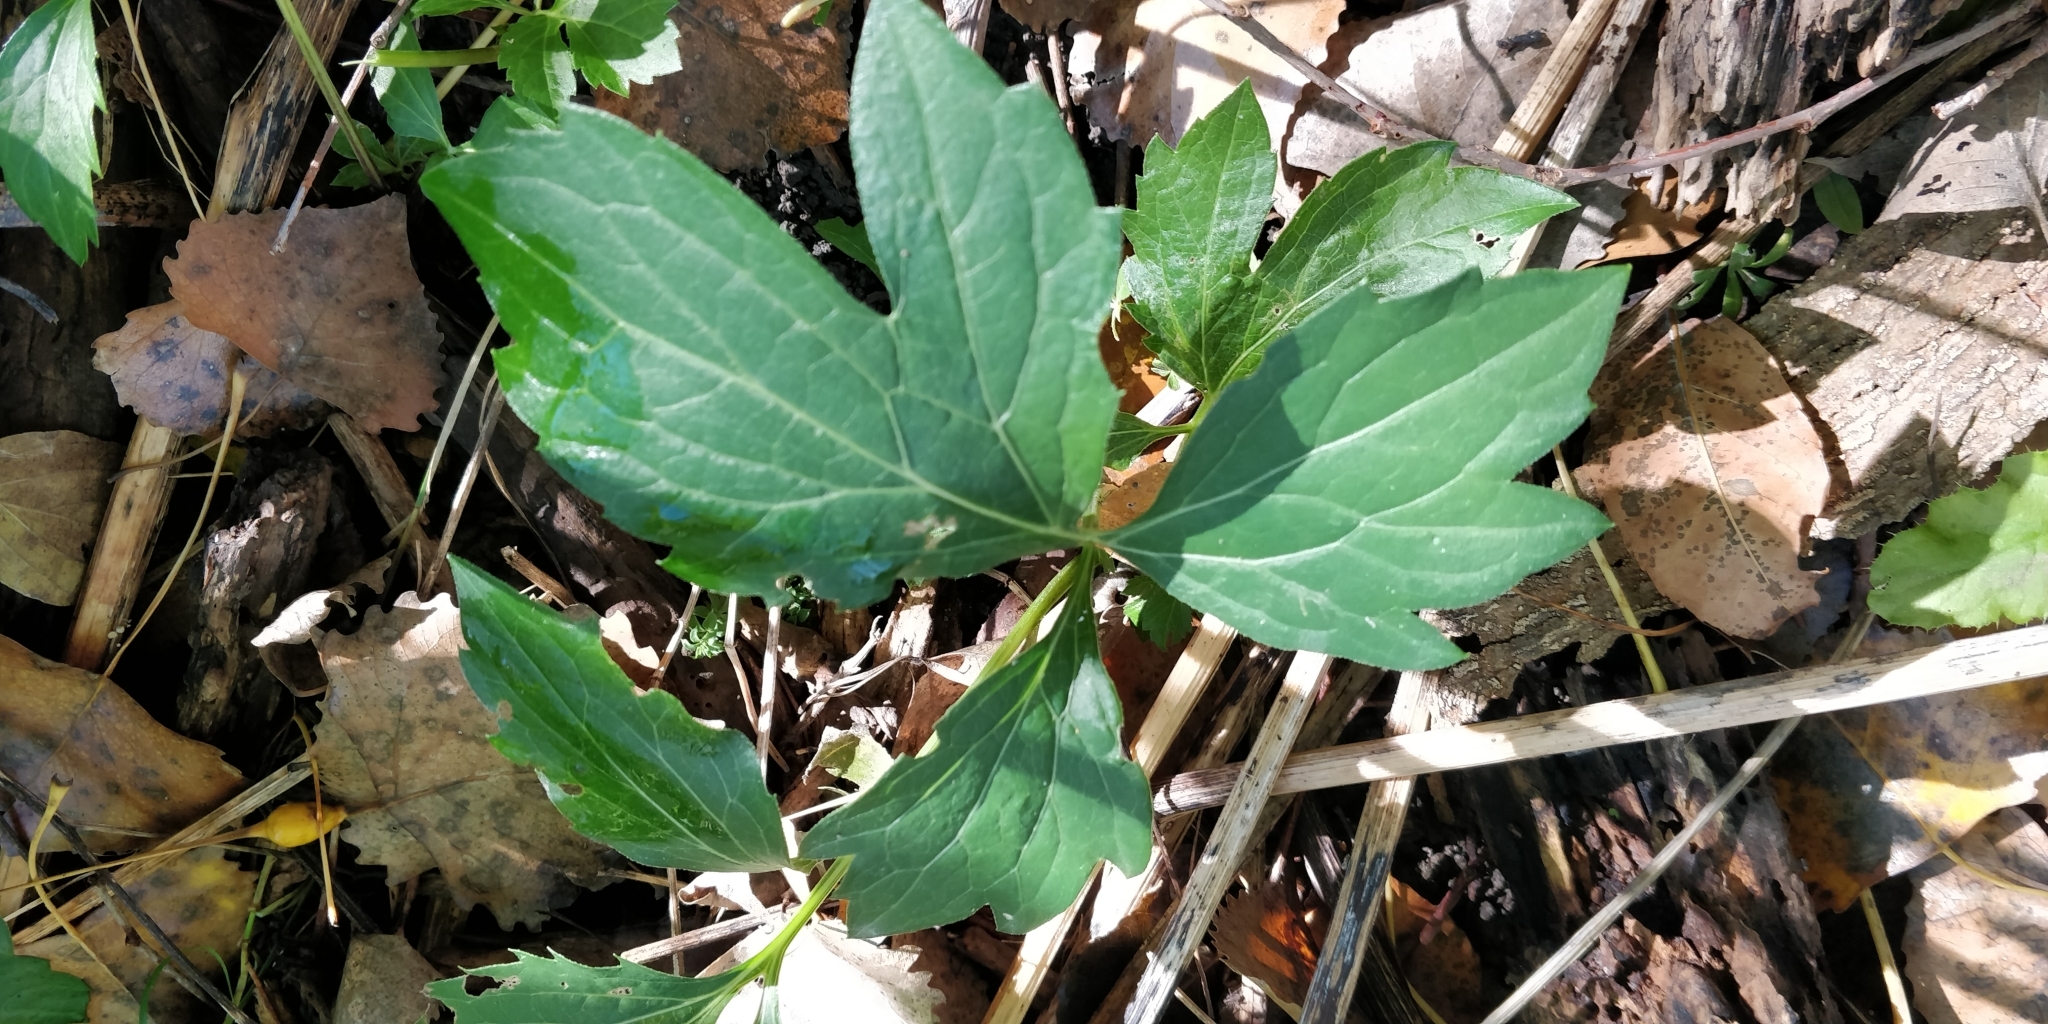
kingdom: Plantae
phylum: Tracheophyta
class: Magnoliopsida
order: Asterales
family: Asteraceae
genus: Rudbeckia
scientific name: Rudbeckia laciniata
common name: Coneflower
